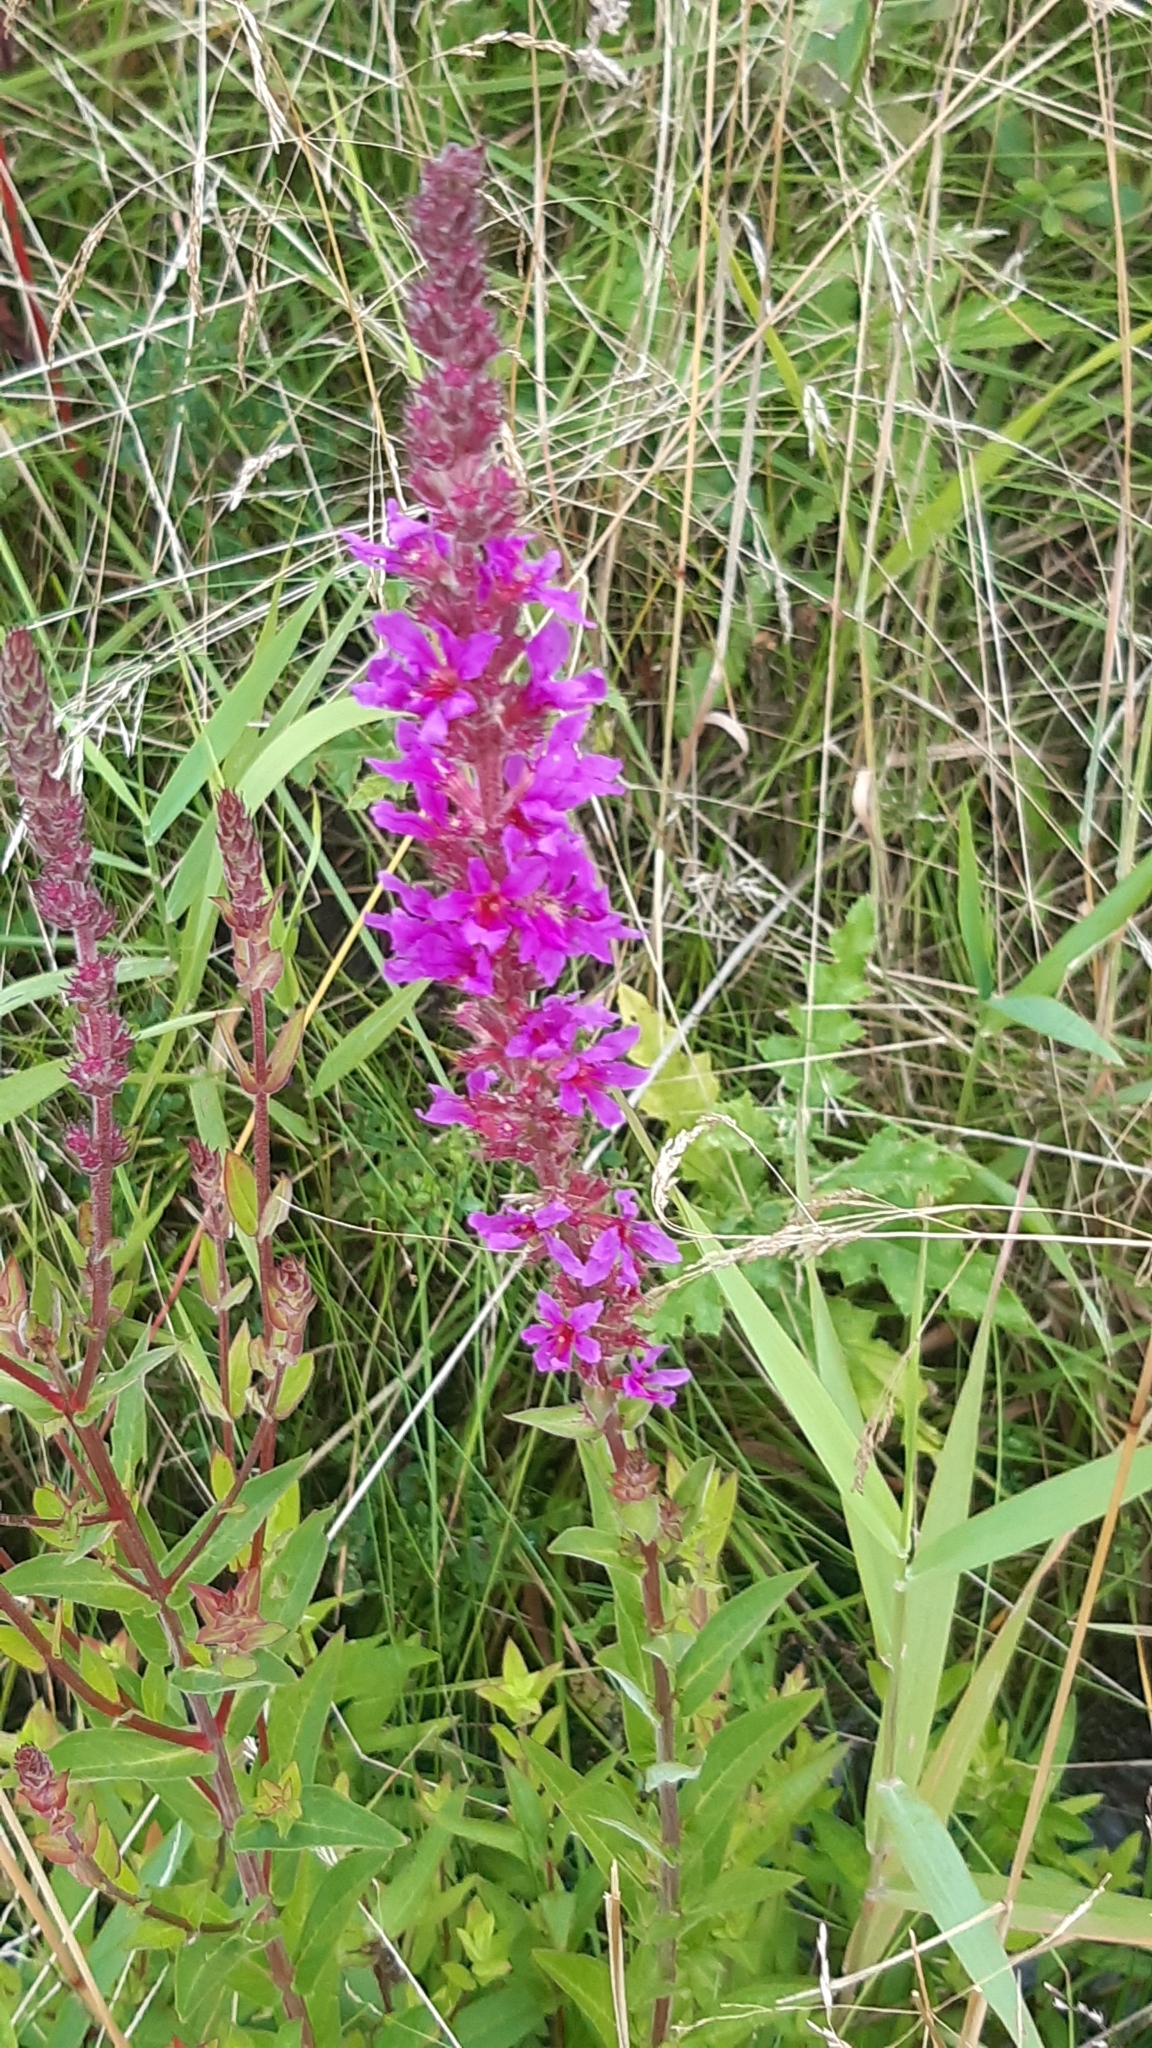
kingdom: Plantae
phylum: Tracheophyta
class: Magnoliopsida
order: Myrtales
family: Lythraceae
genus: Lythrum
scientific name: Lythrum salicaria
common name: Purple loosestrife
